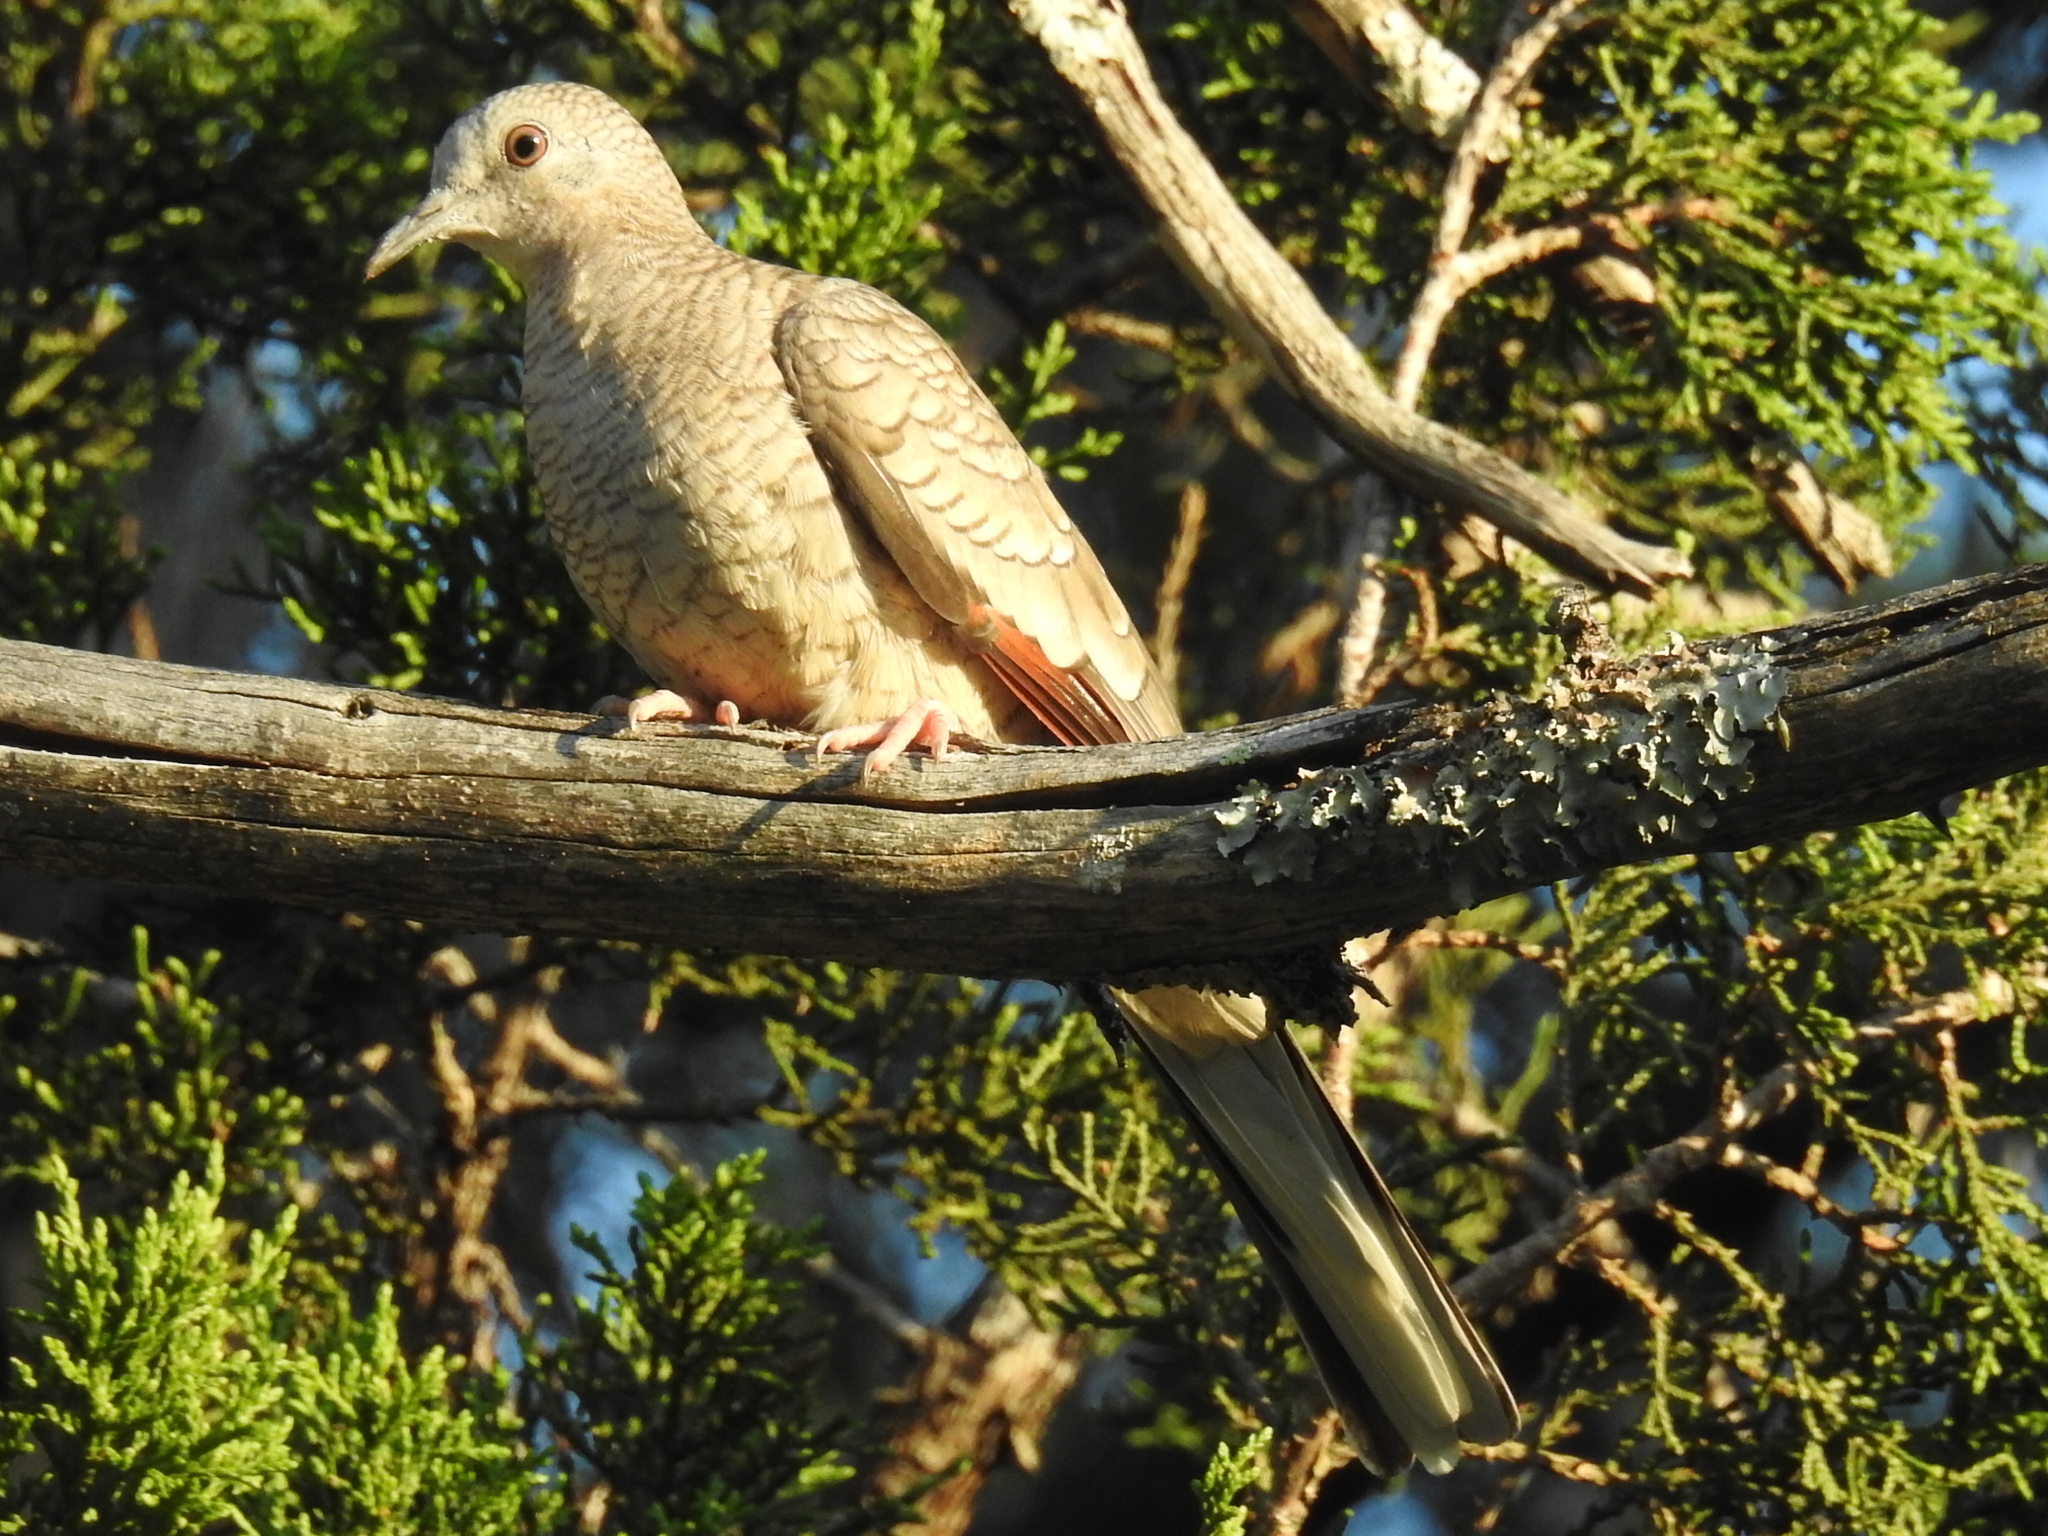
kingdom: Animalia
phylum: Chordata
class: Aves
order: Columbiformes
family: Columbidae
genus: Columbina
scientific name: Columbina inca
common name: Inca dove
